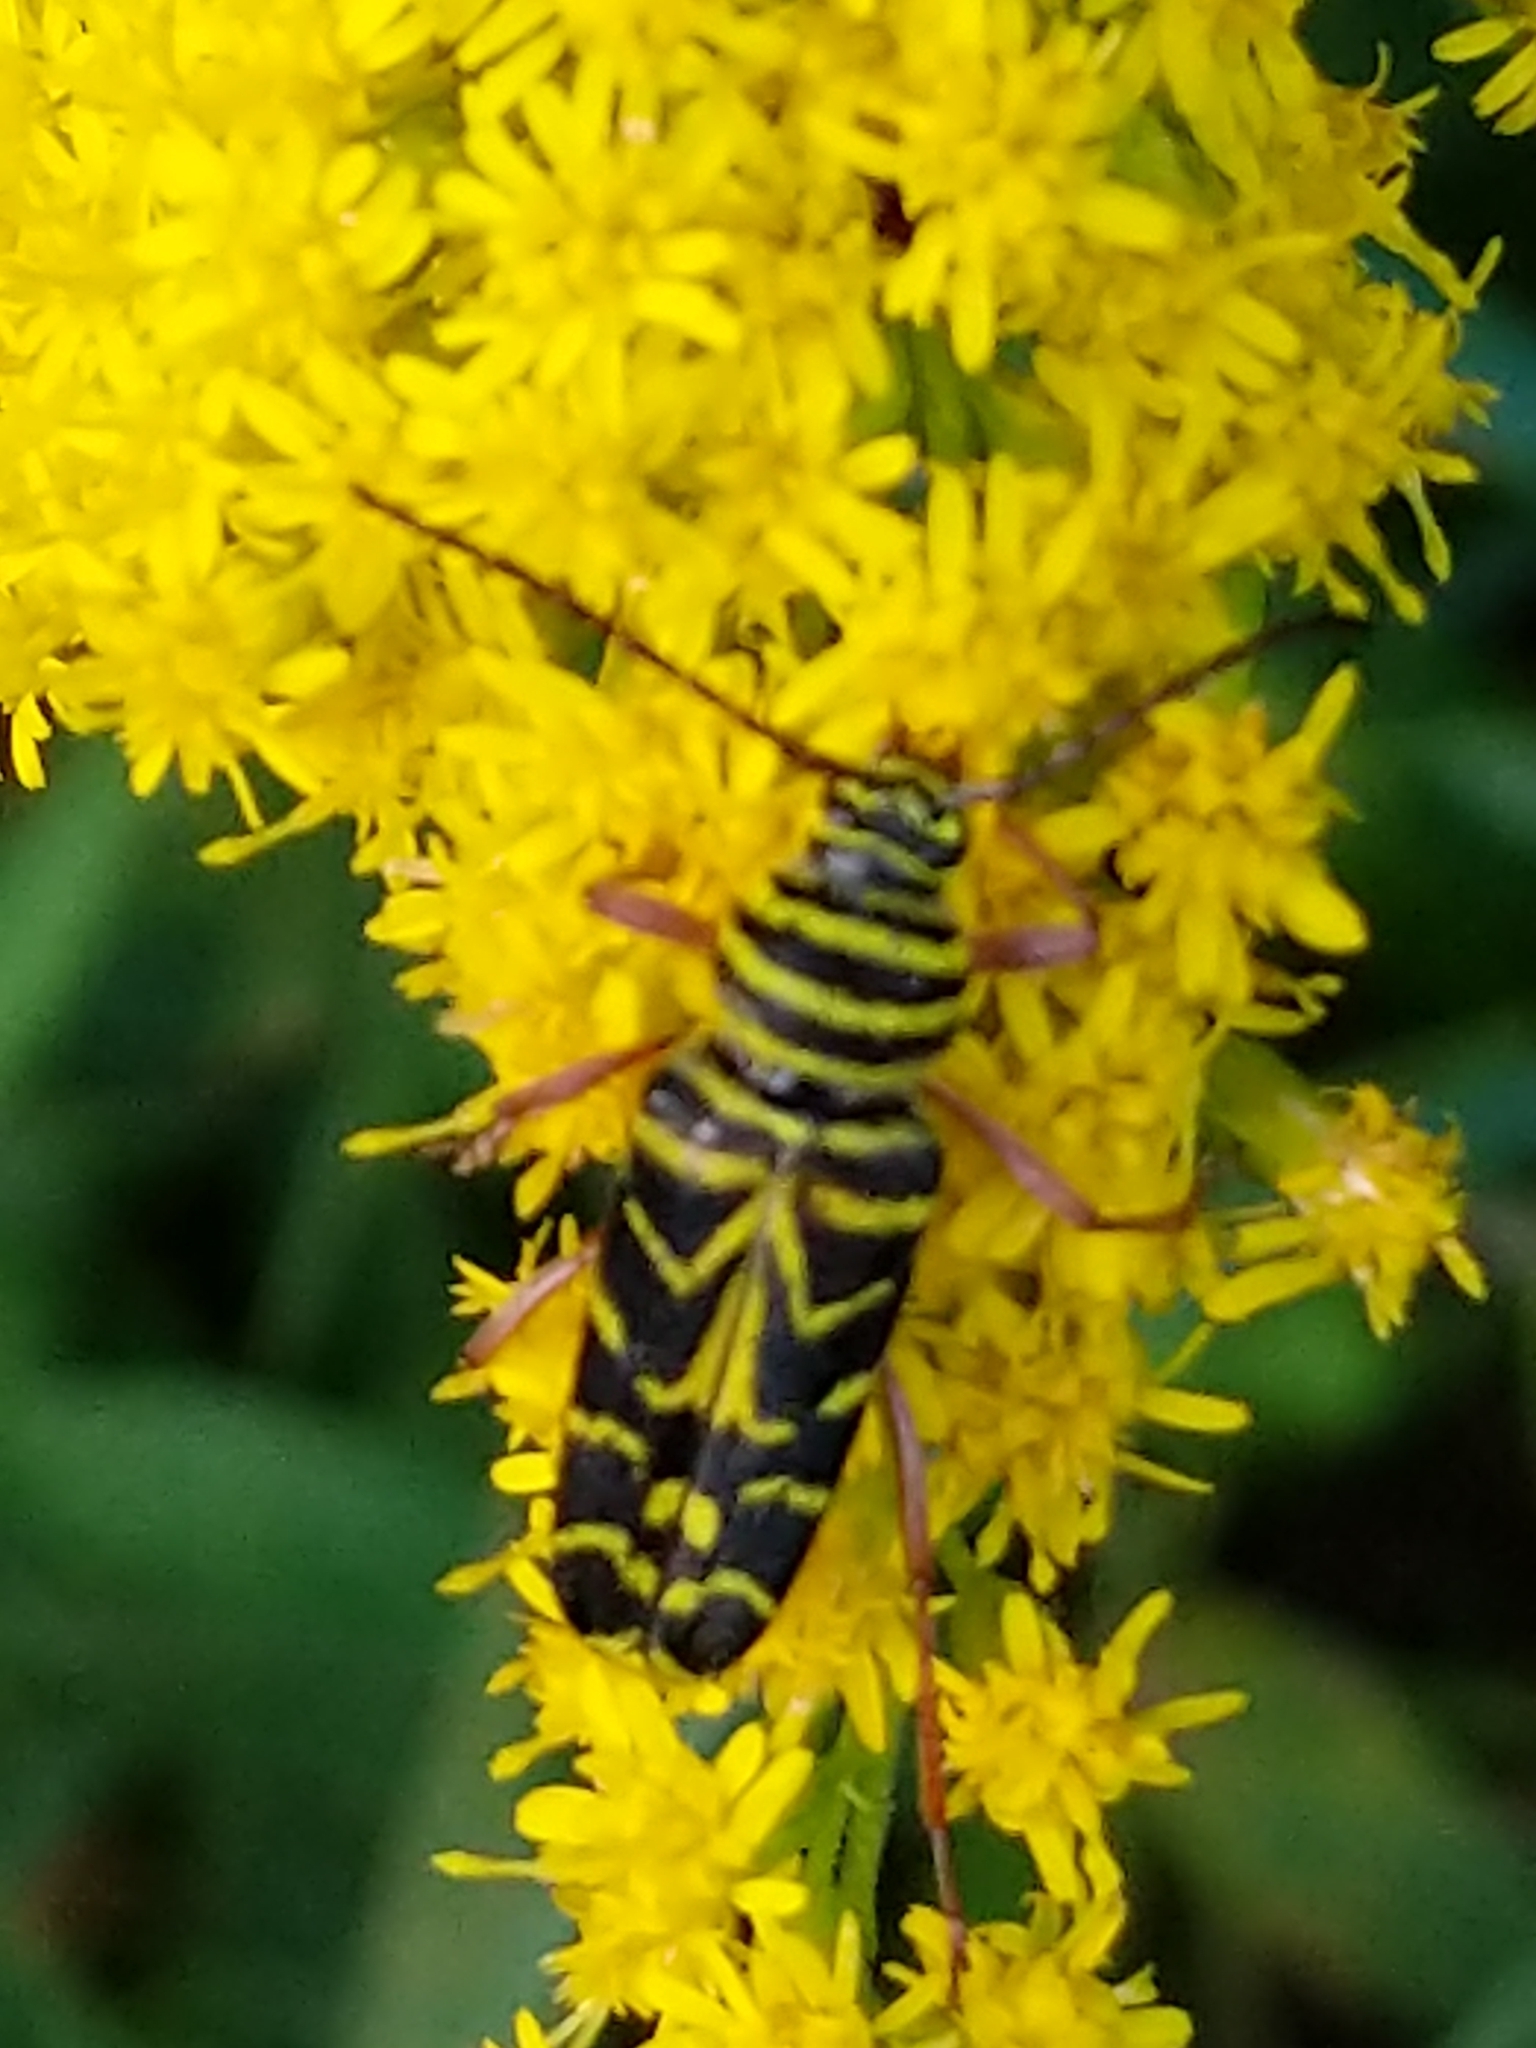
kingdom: Animalia
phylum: Arthropoda
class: Insecta
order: Coleoptera
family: Cerambycidae
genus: Megacyllene
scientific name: Megacyllene robiniae
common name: Locust borer
